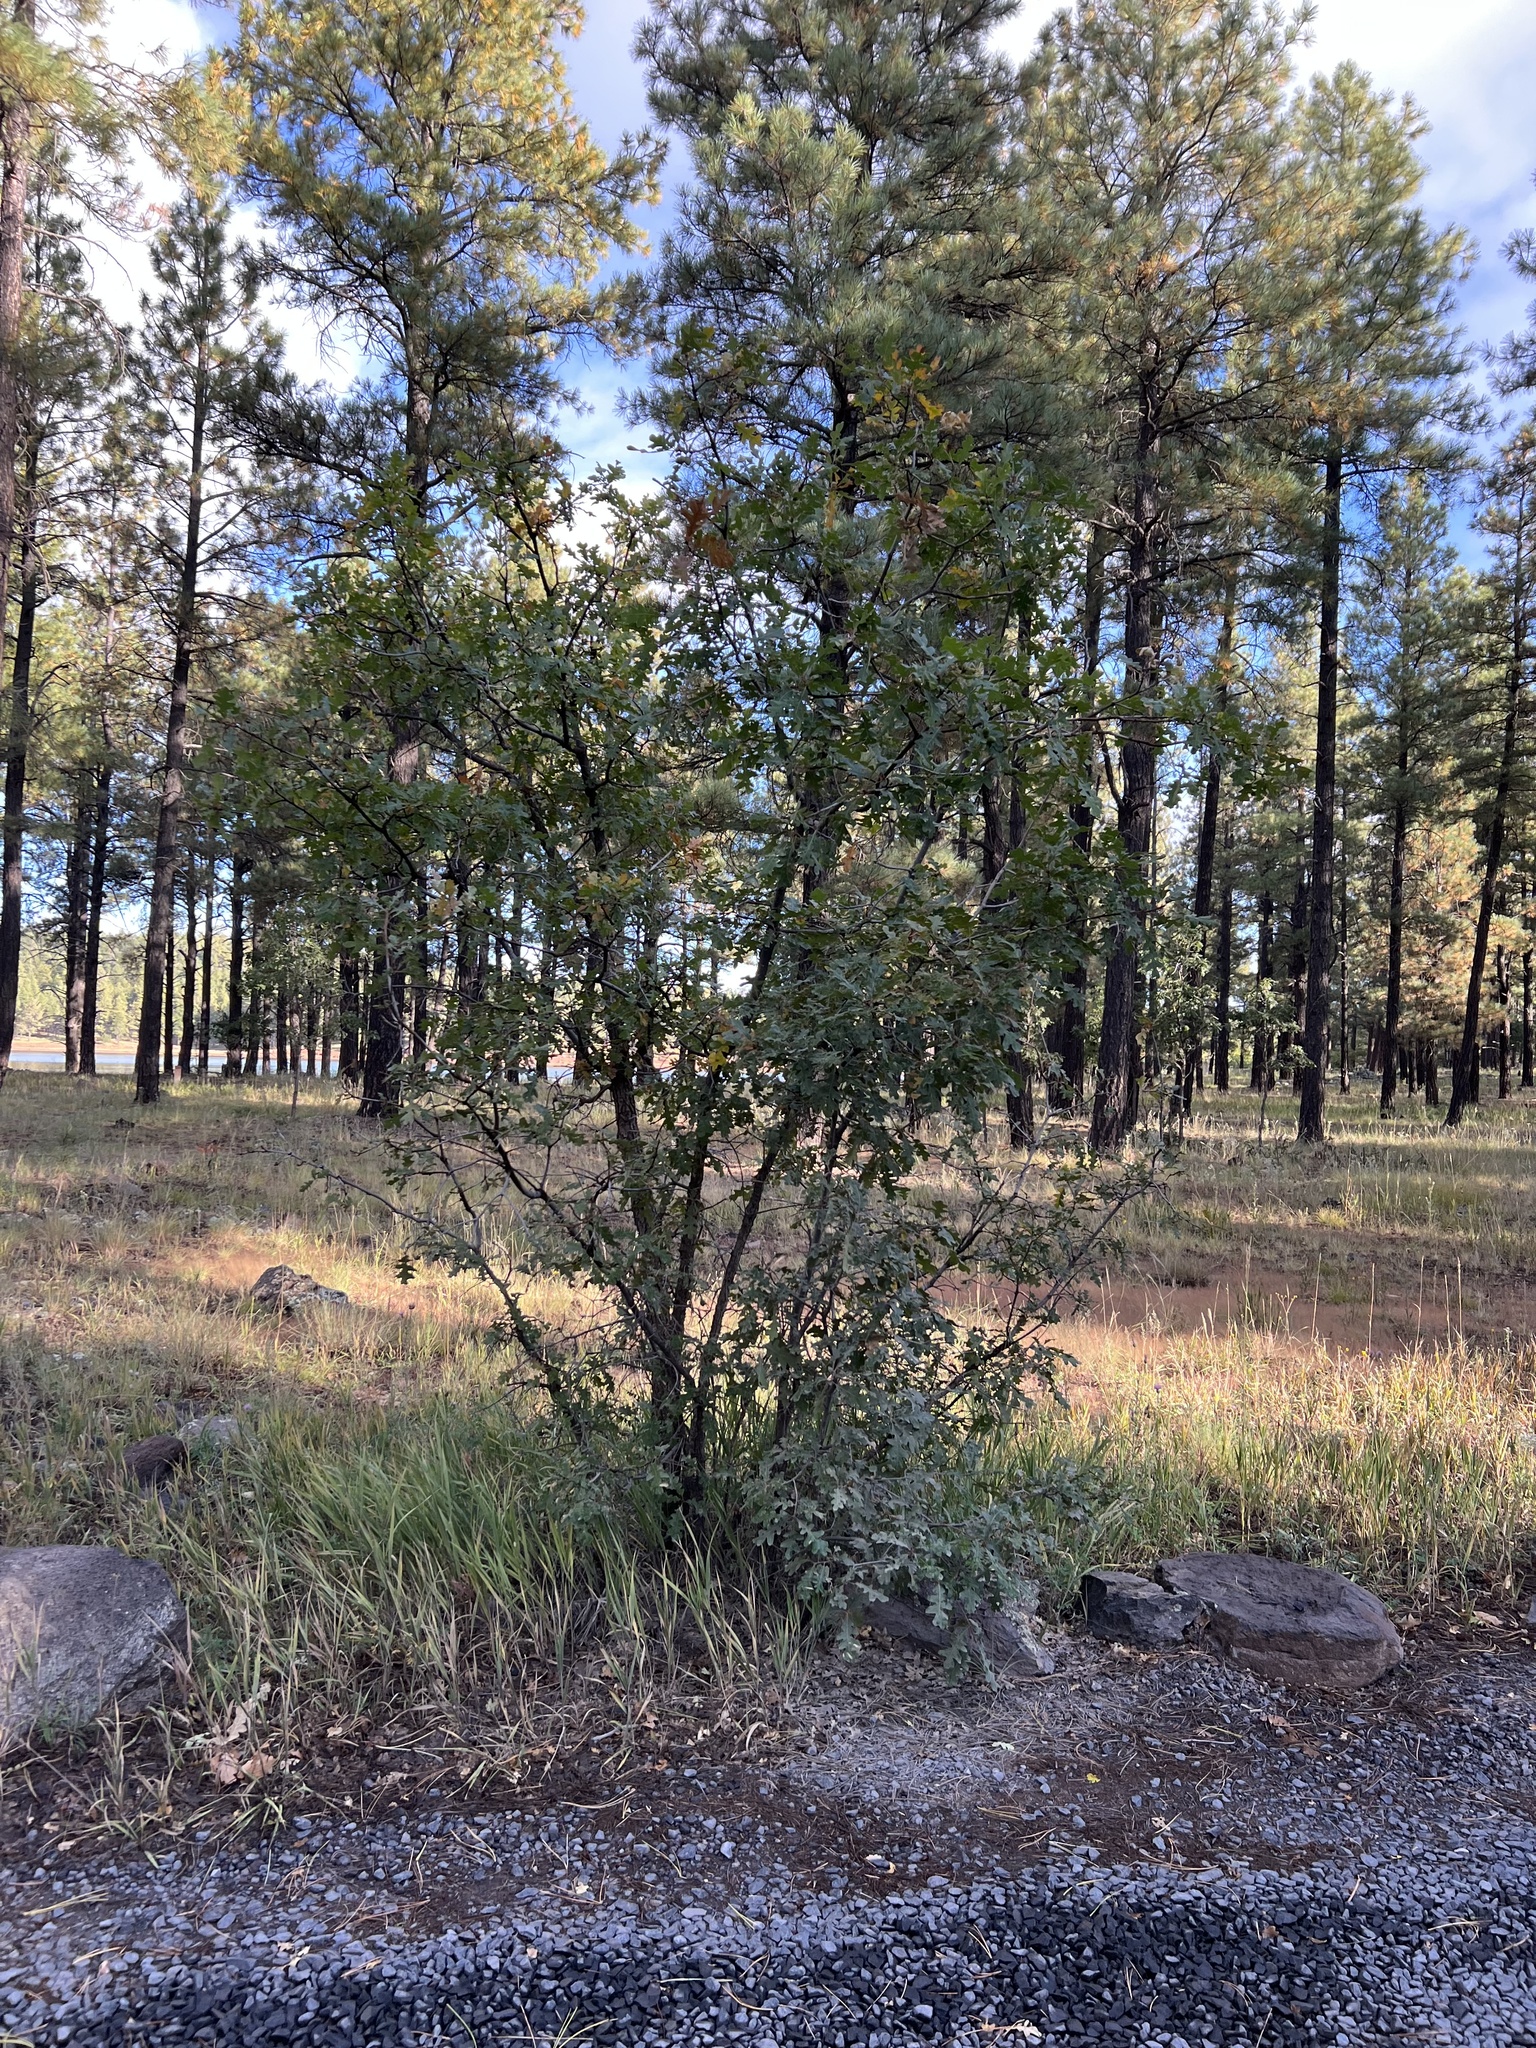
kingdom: Plantae
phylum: Tracheophyta
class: Magnoliopsida
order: Fagales
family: Fagaceae
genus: Quercus
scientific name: Quercus gambelii
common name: Gambel oak
